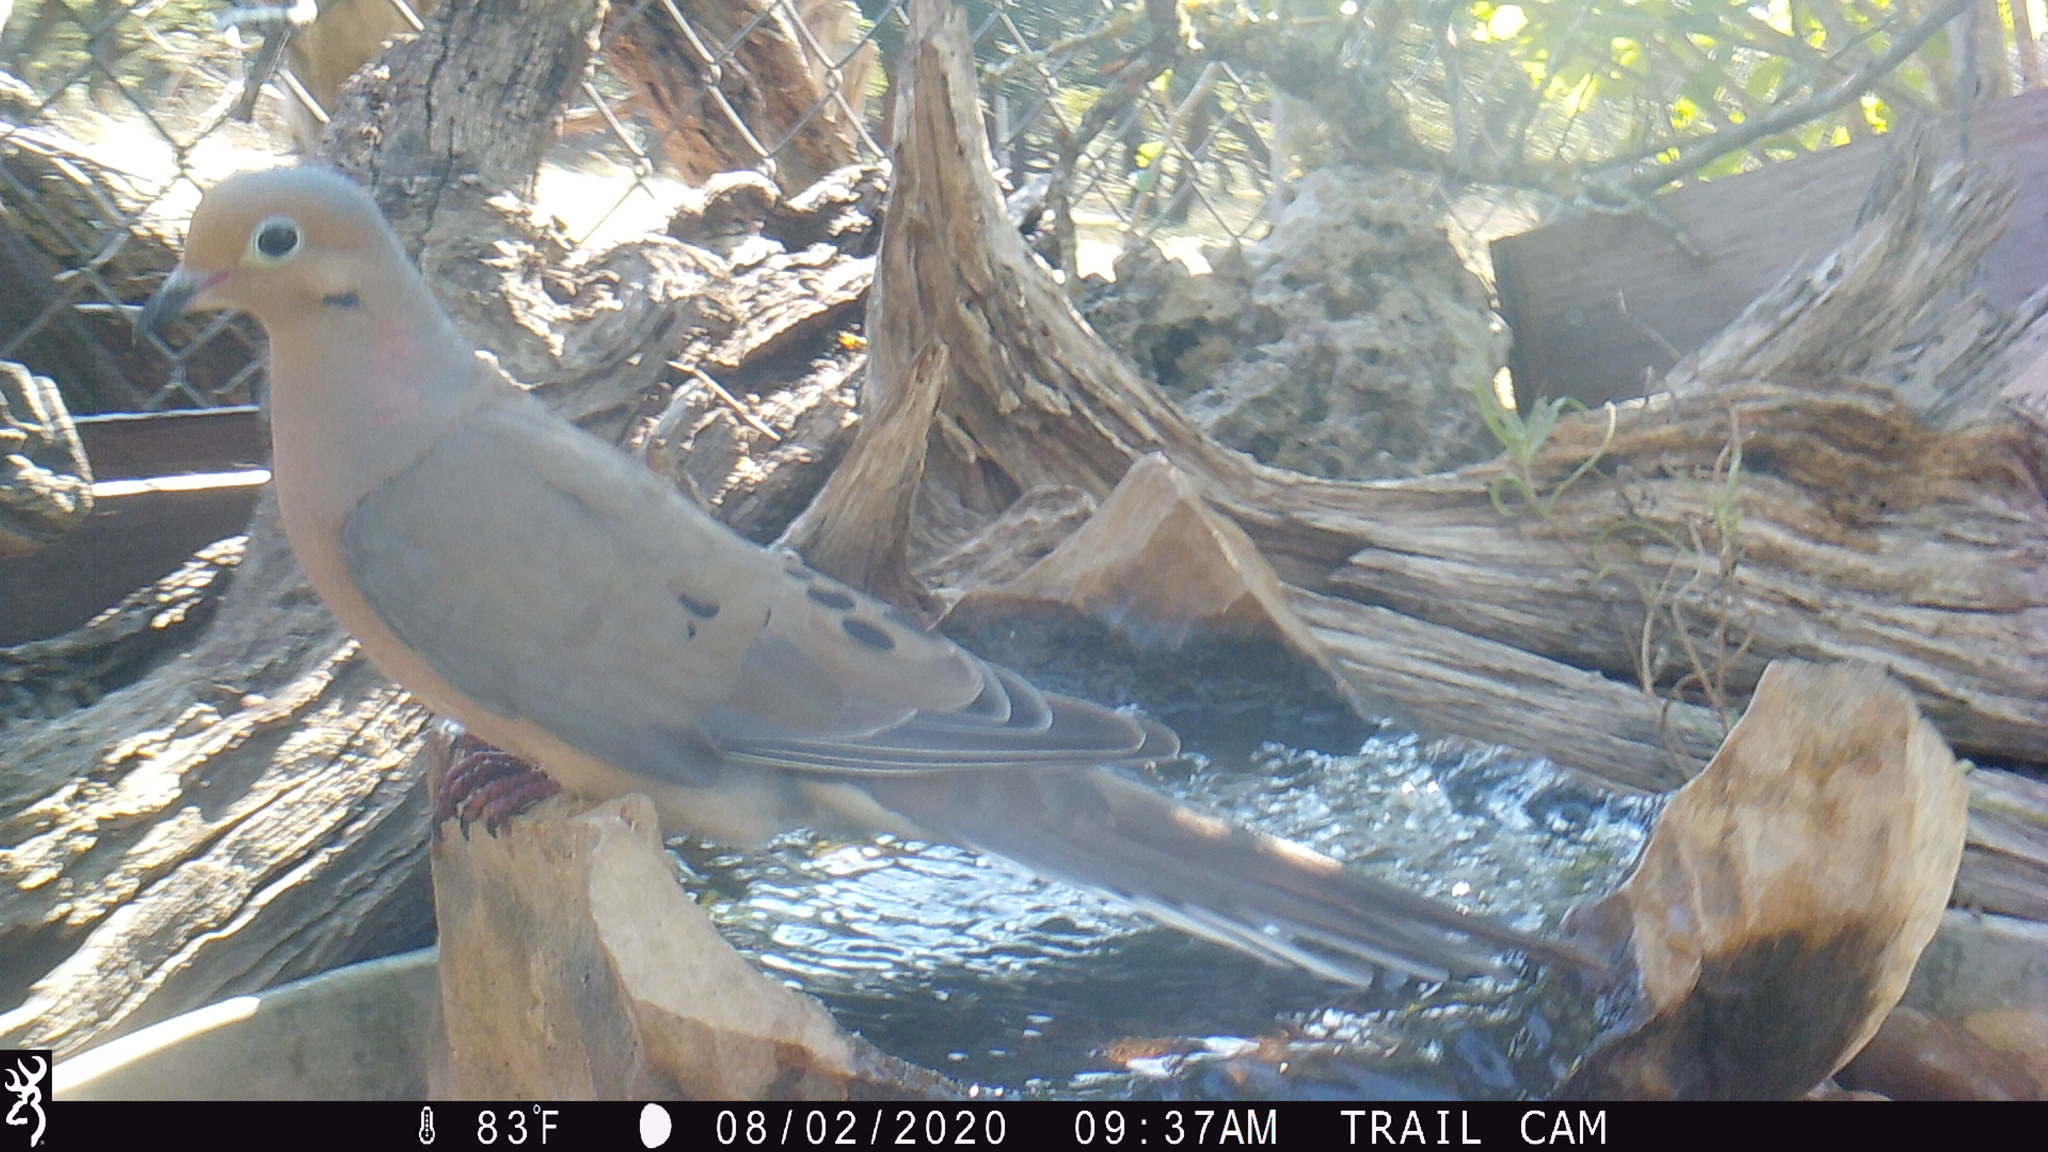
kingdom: Animalia
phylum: Chordata
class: Aves
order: Columbiformes
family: Columbidae
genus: Zenaida
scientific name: Zenaida macroura
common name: Mourning dove
